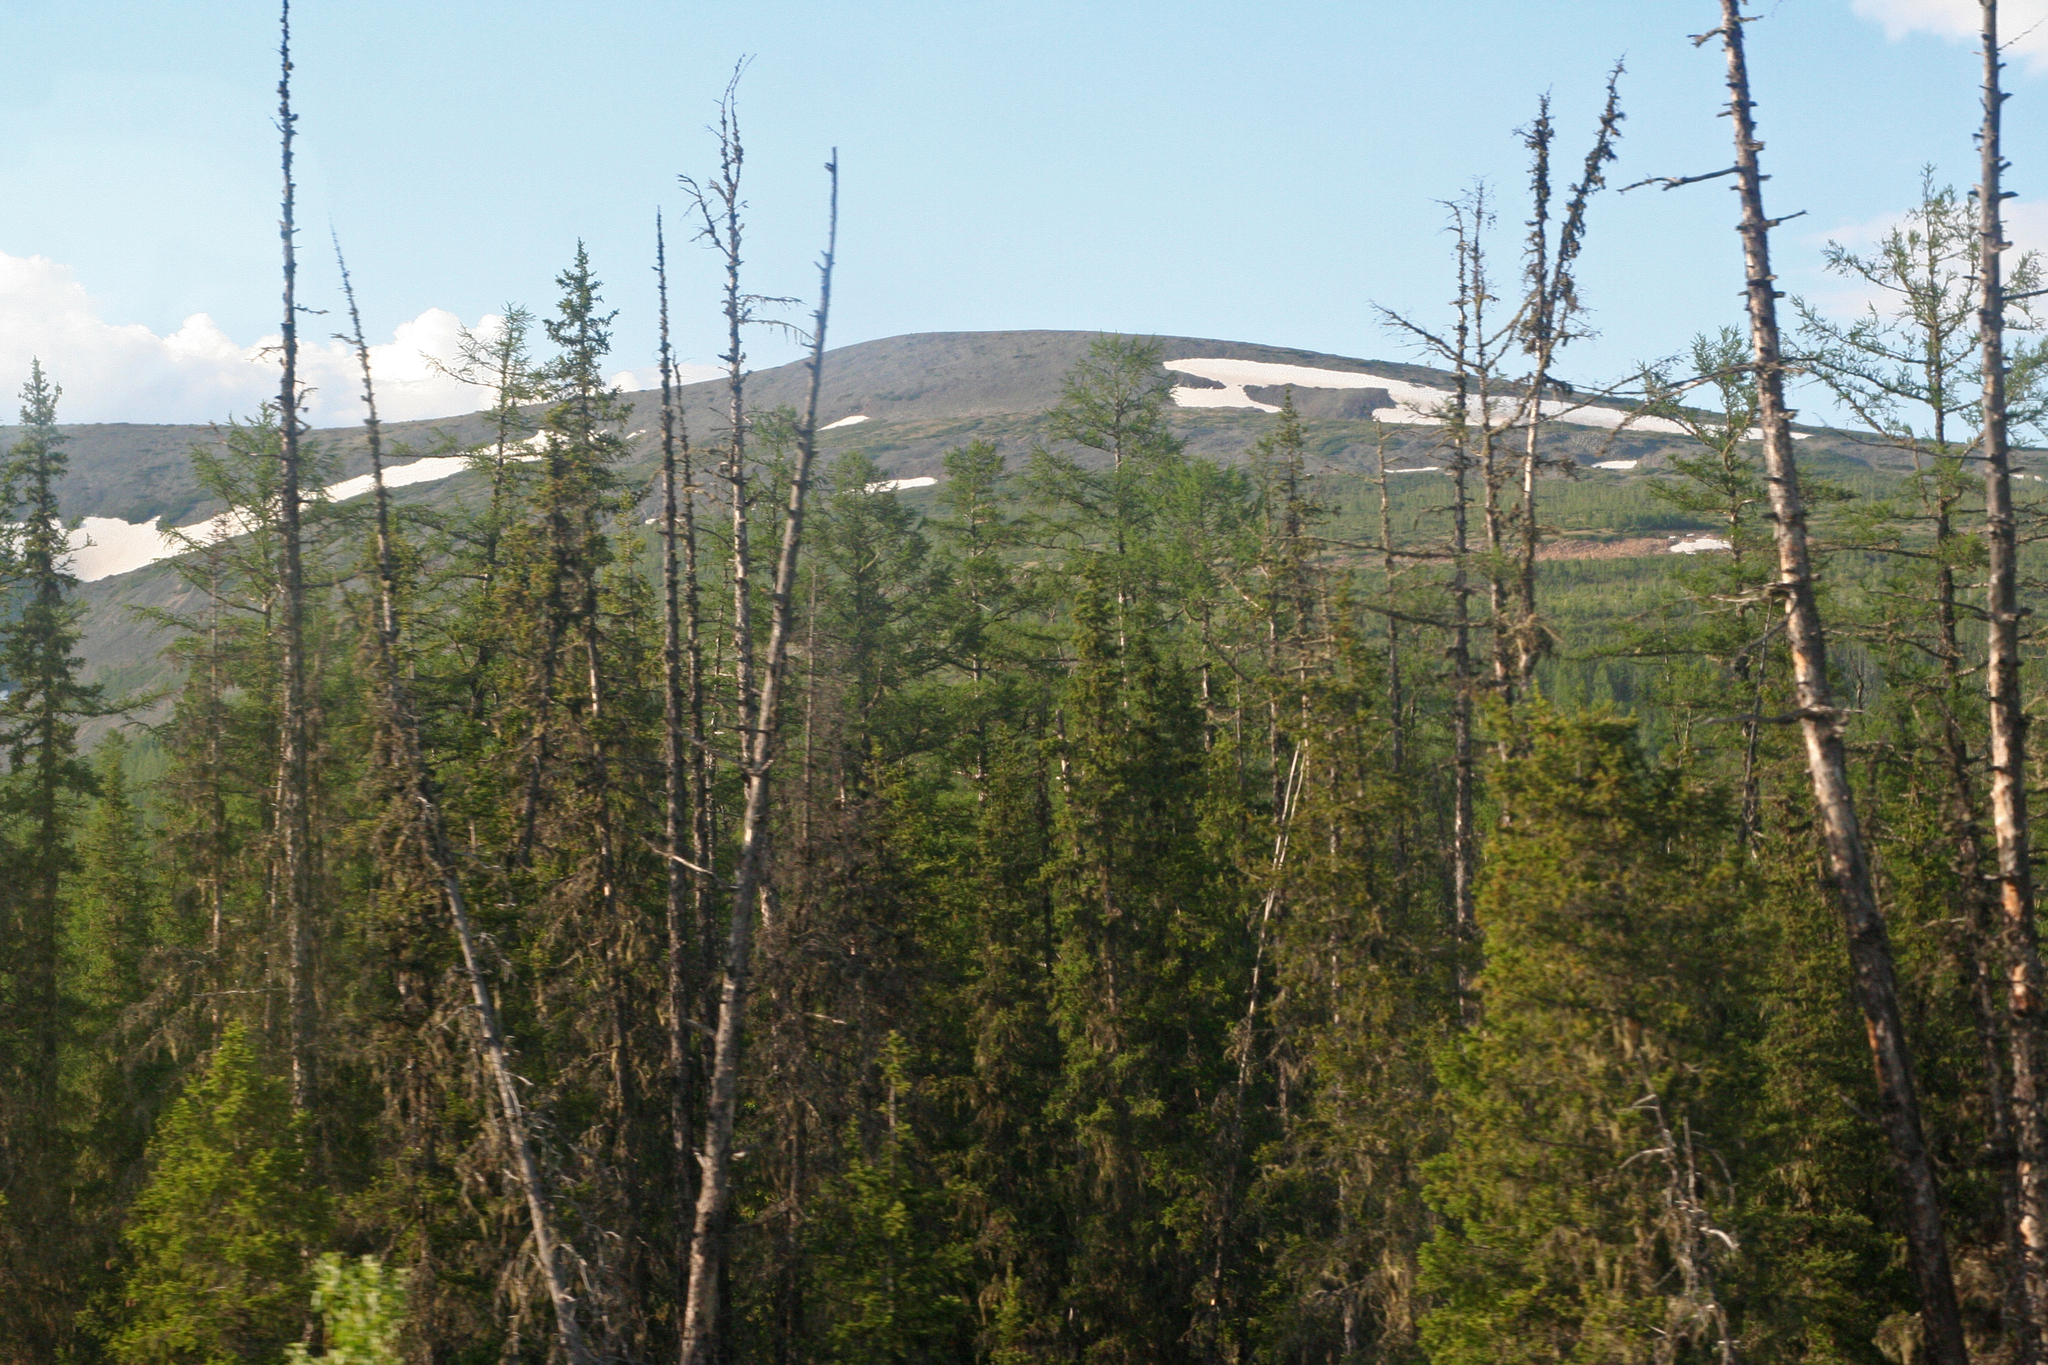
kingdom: Plantae
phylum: Tracheophyta
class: Pinopsida
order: Pinales
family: Pinaceae
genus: Picea
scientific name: Picea obovata
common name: Siberian spruce
